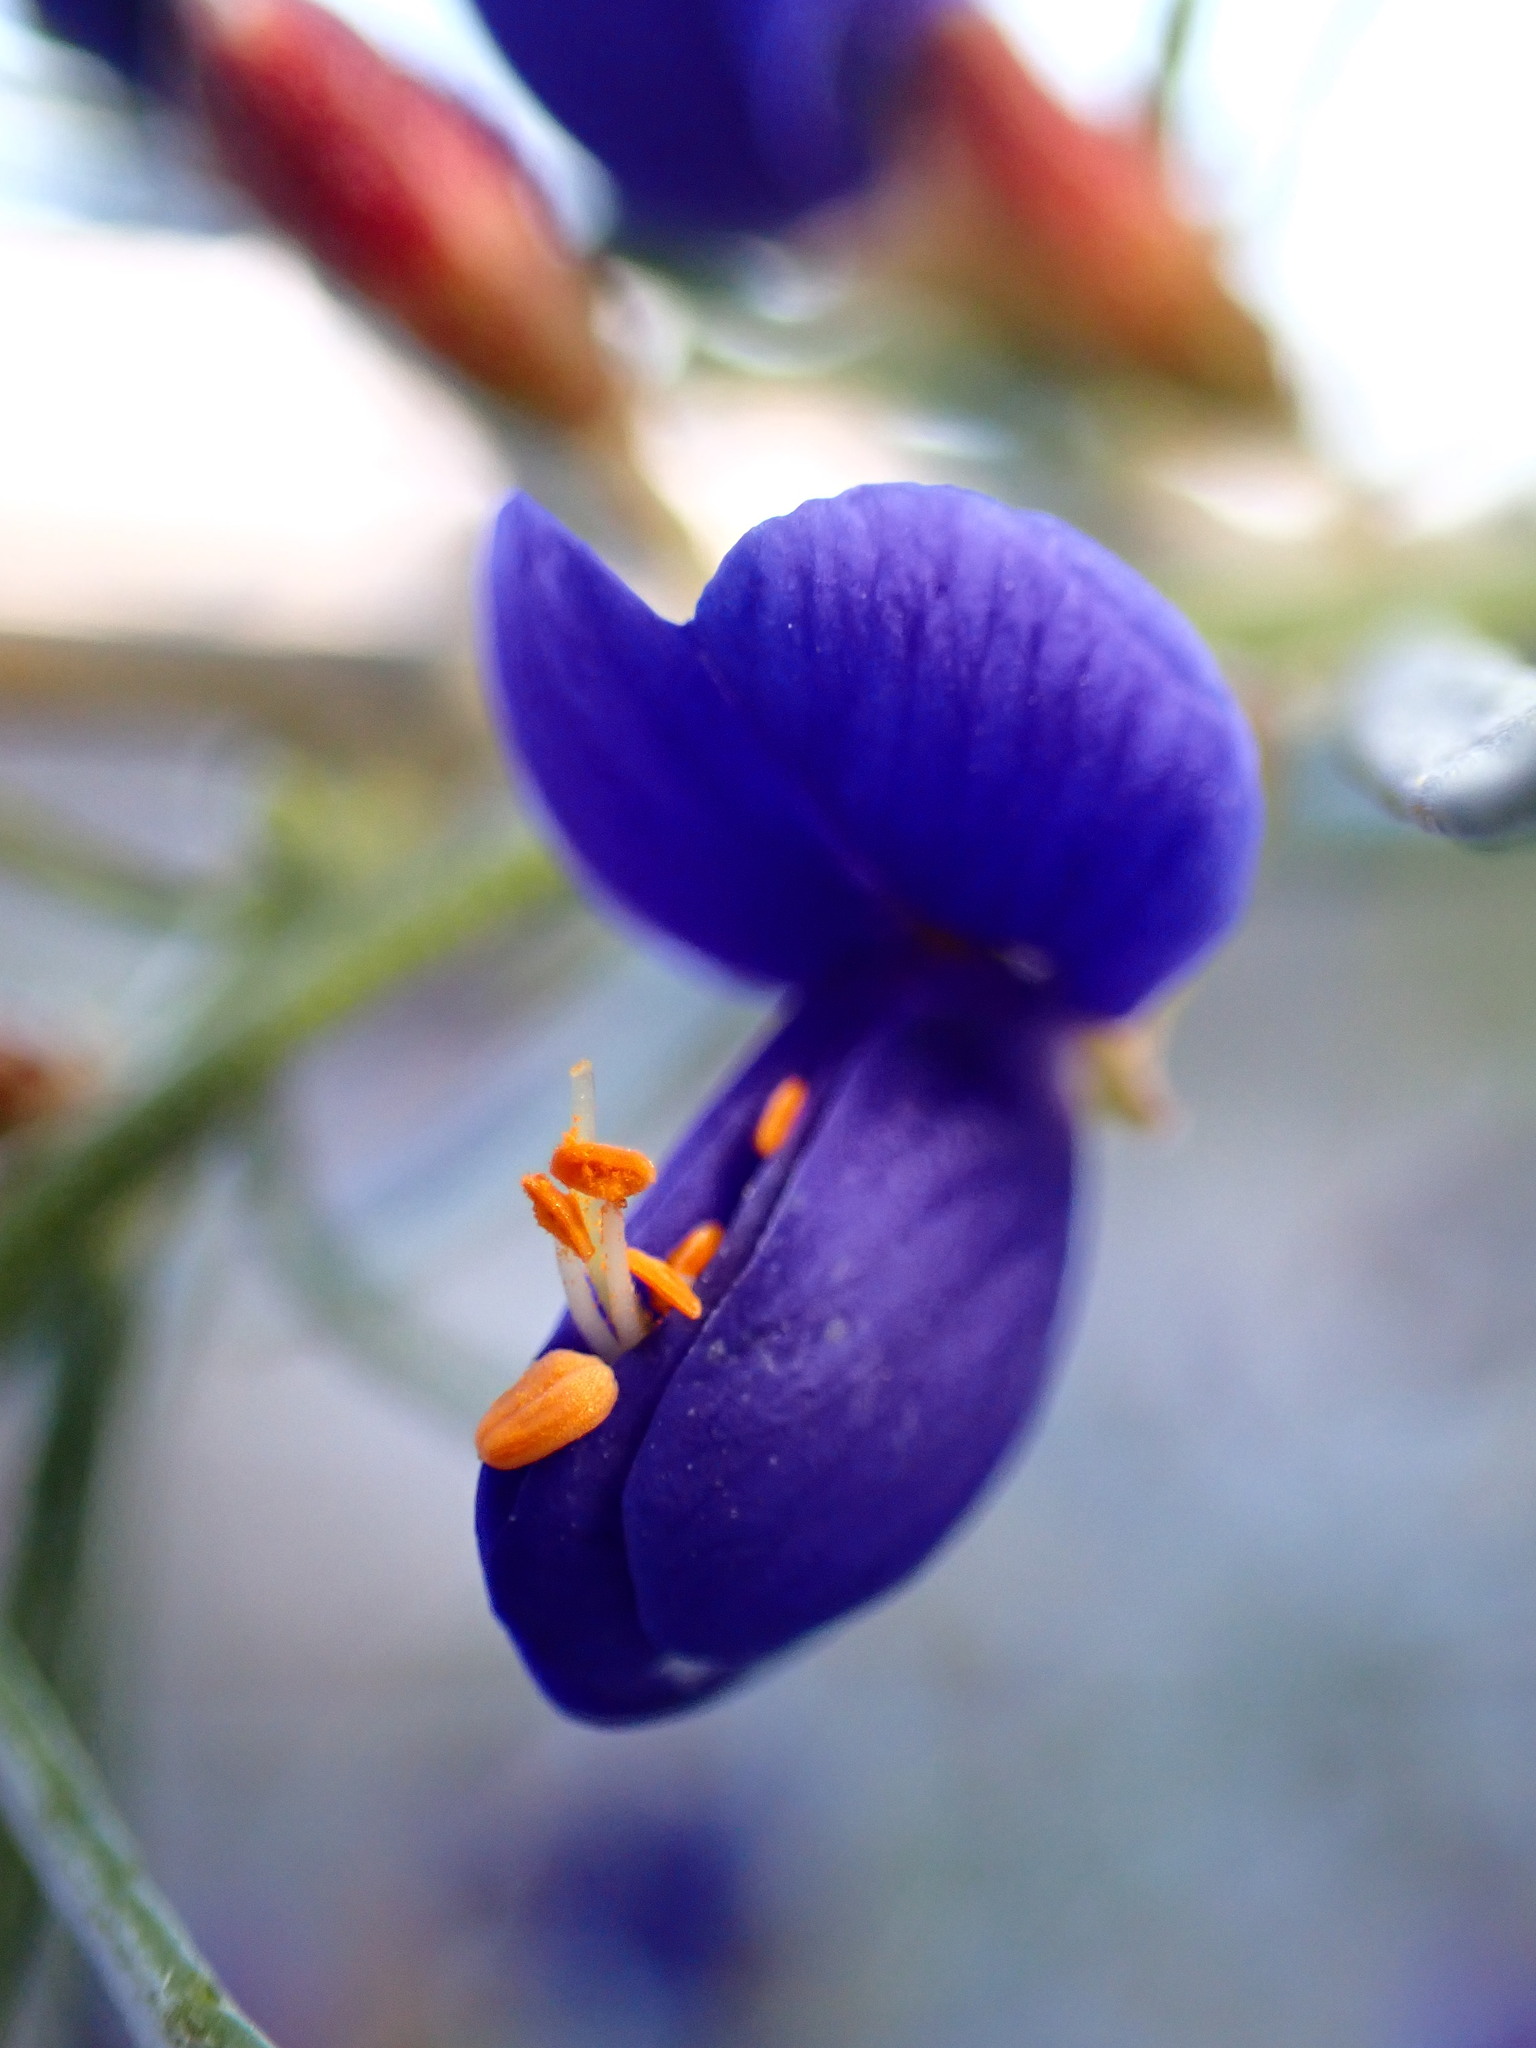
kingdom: Plantae
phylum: Tracheophyta
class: Magnoliopsida
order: Fabales
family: Fabaceae
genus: Psorothamnus
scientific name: Psorothamnus schottii
